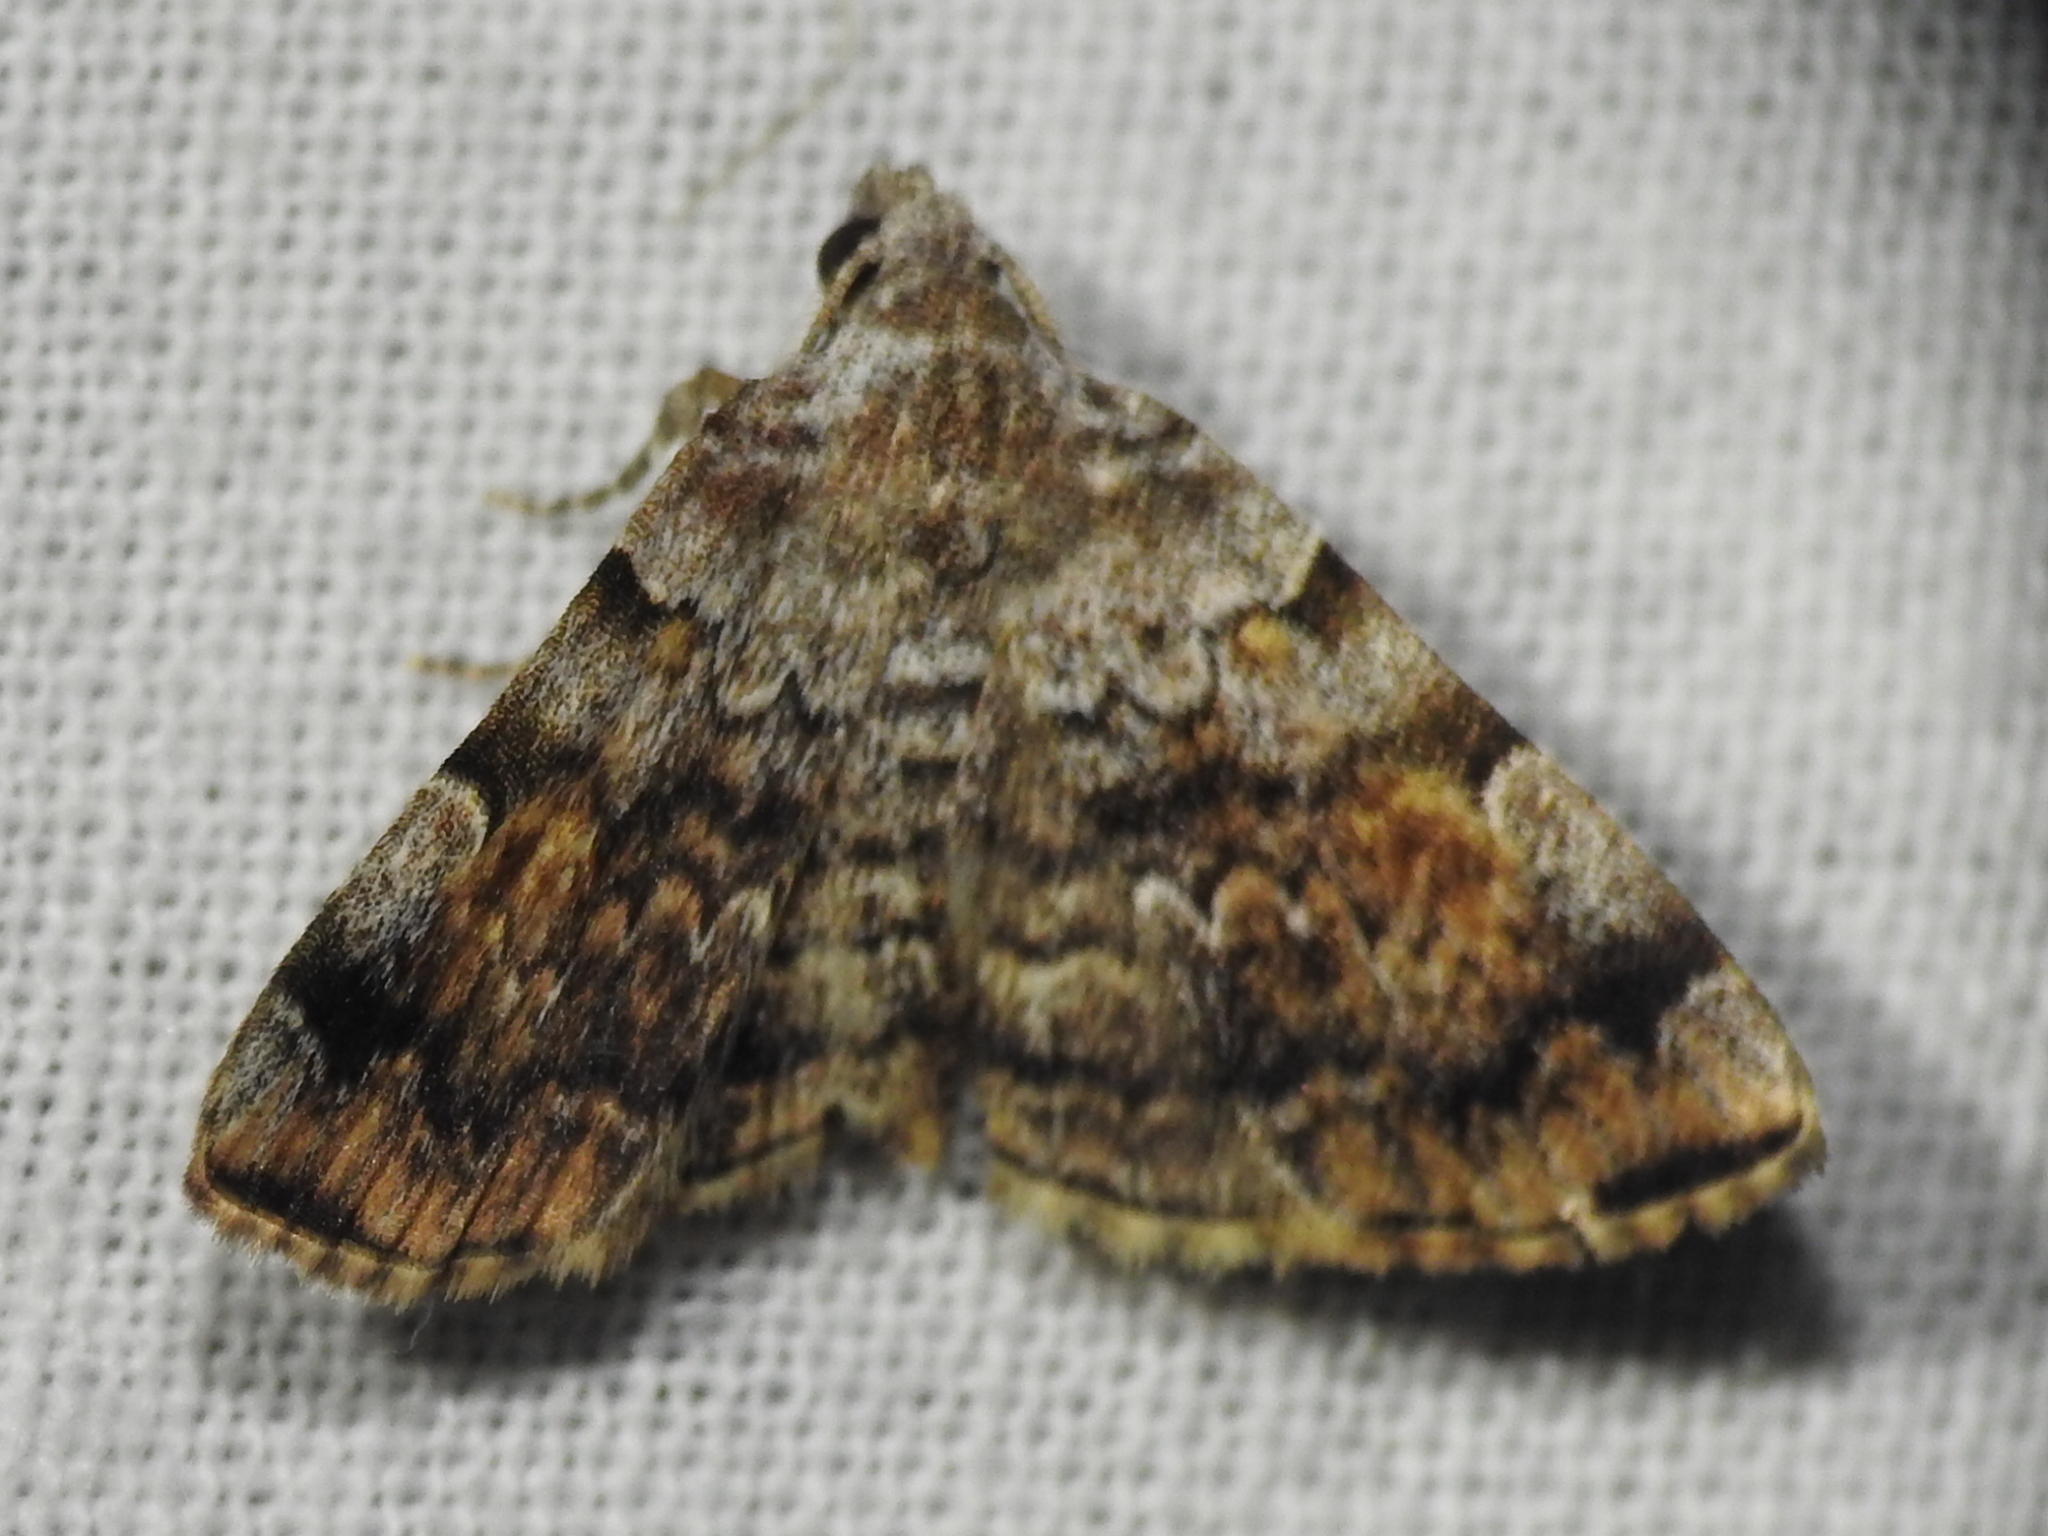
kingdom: Animalia
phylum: Arthropoda
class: Insecta
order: Lepidoptera
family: Erebidae
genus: Idia
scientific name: Idia americalis
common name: American idia moth
